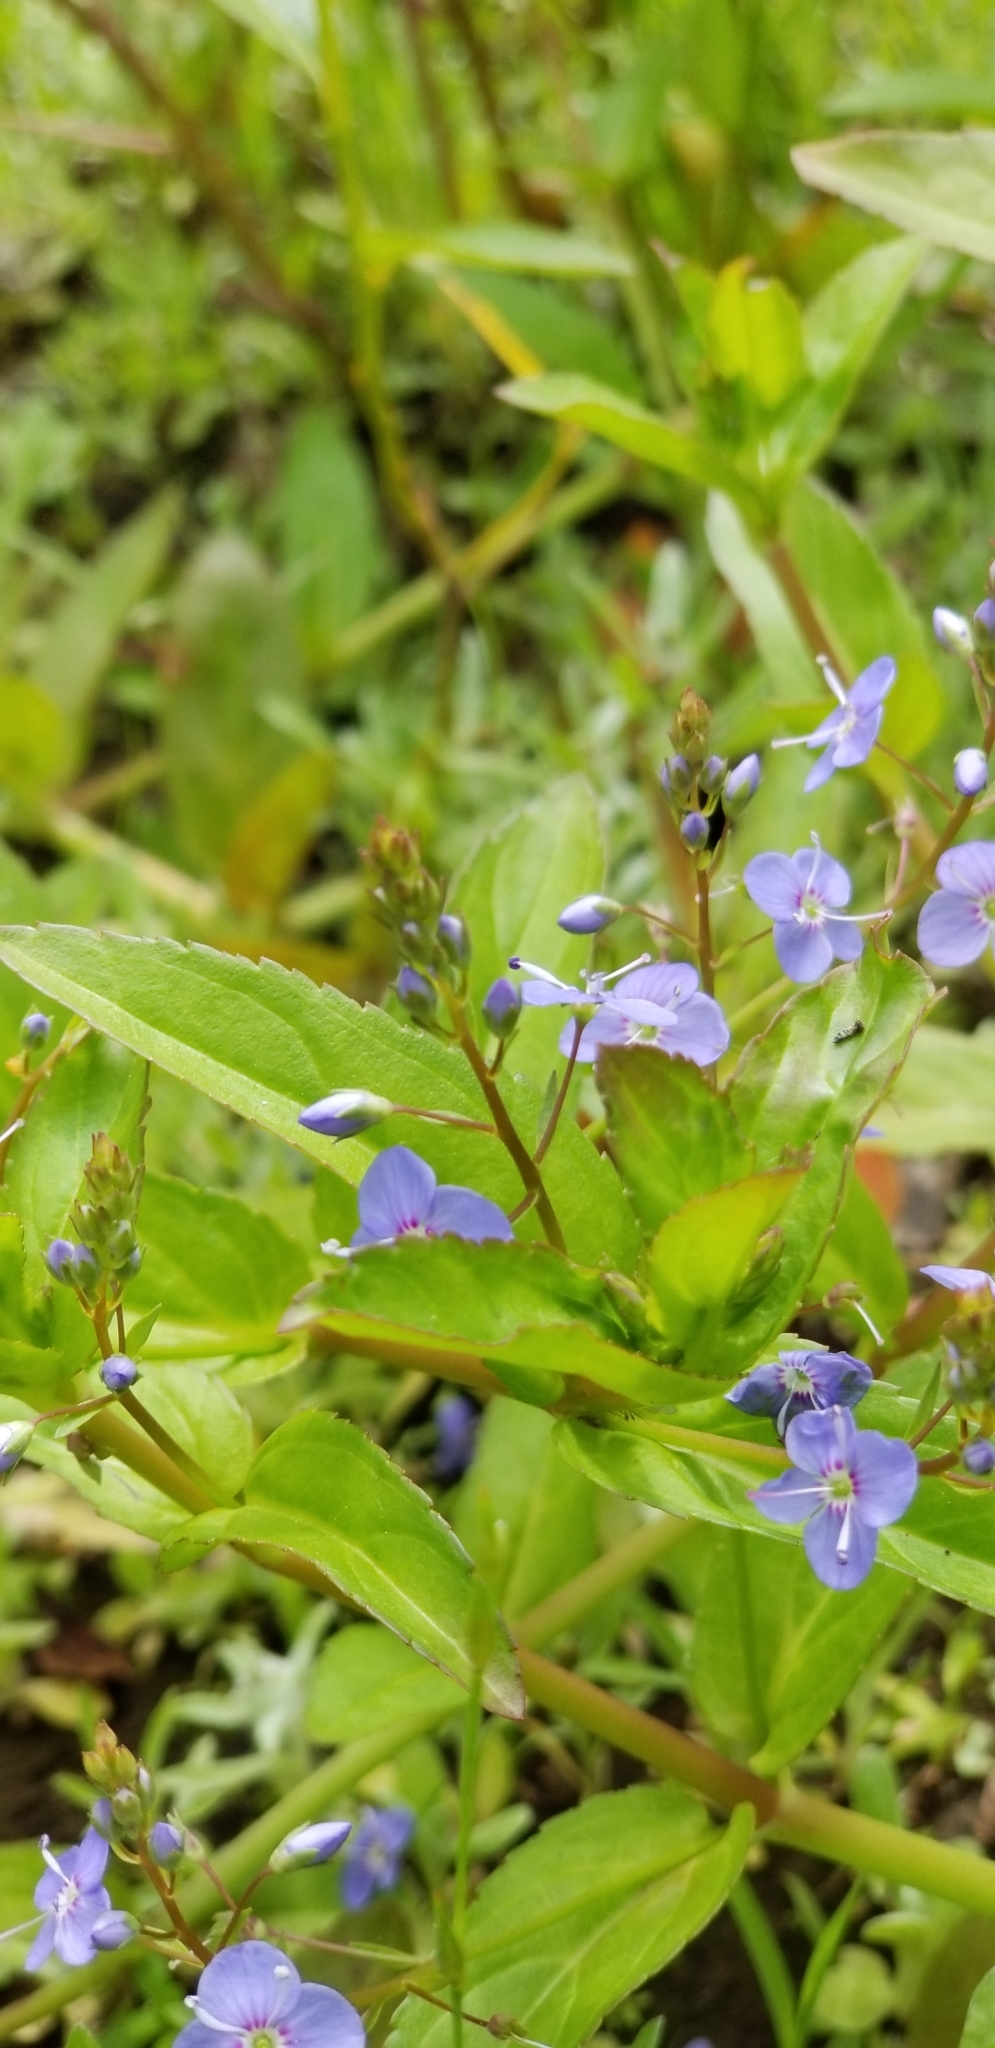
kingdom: Plantae
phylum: Tracheophyta
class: Magnoliopsida
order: Lamiales
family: Plantaginaceae
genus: Veronica
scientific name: Veronica americana
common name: American brooklime
